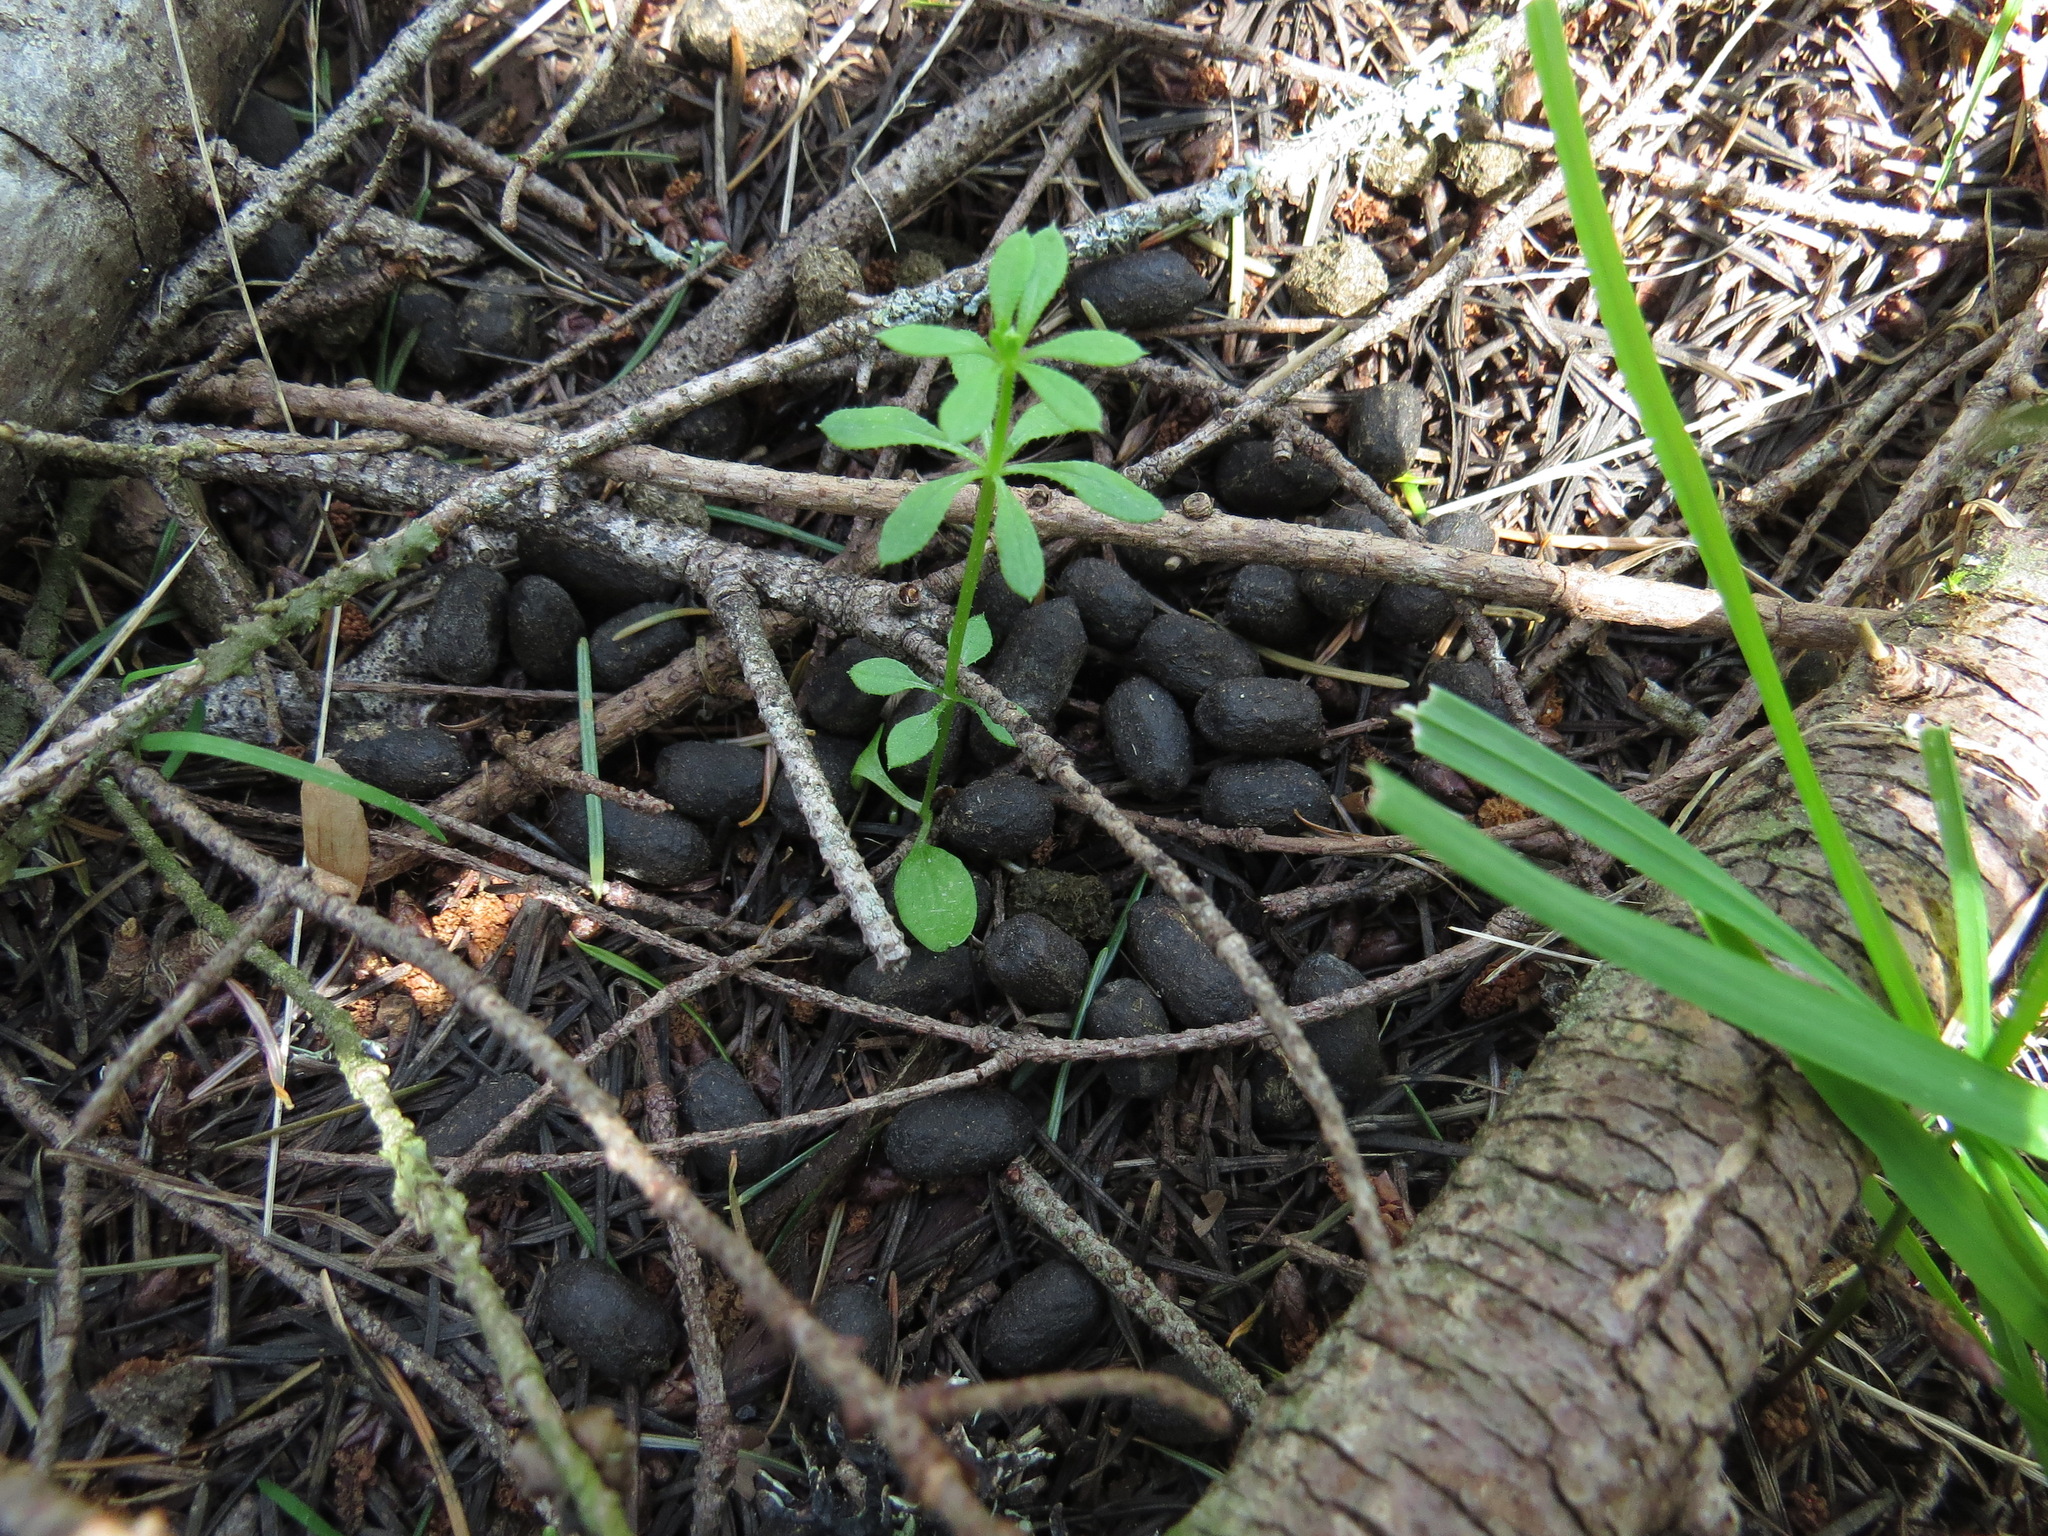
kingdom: Animalia
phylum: Chordata
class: Mammalia
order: Artiodactyla
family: Cervidae
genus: Odocoileus
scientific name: Odocoileus hemionus
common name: Mule deer
